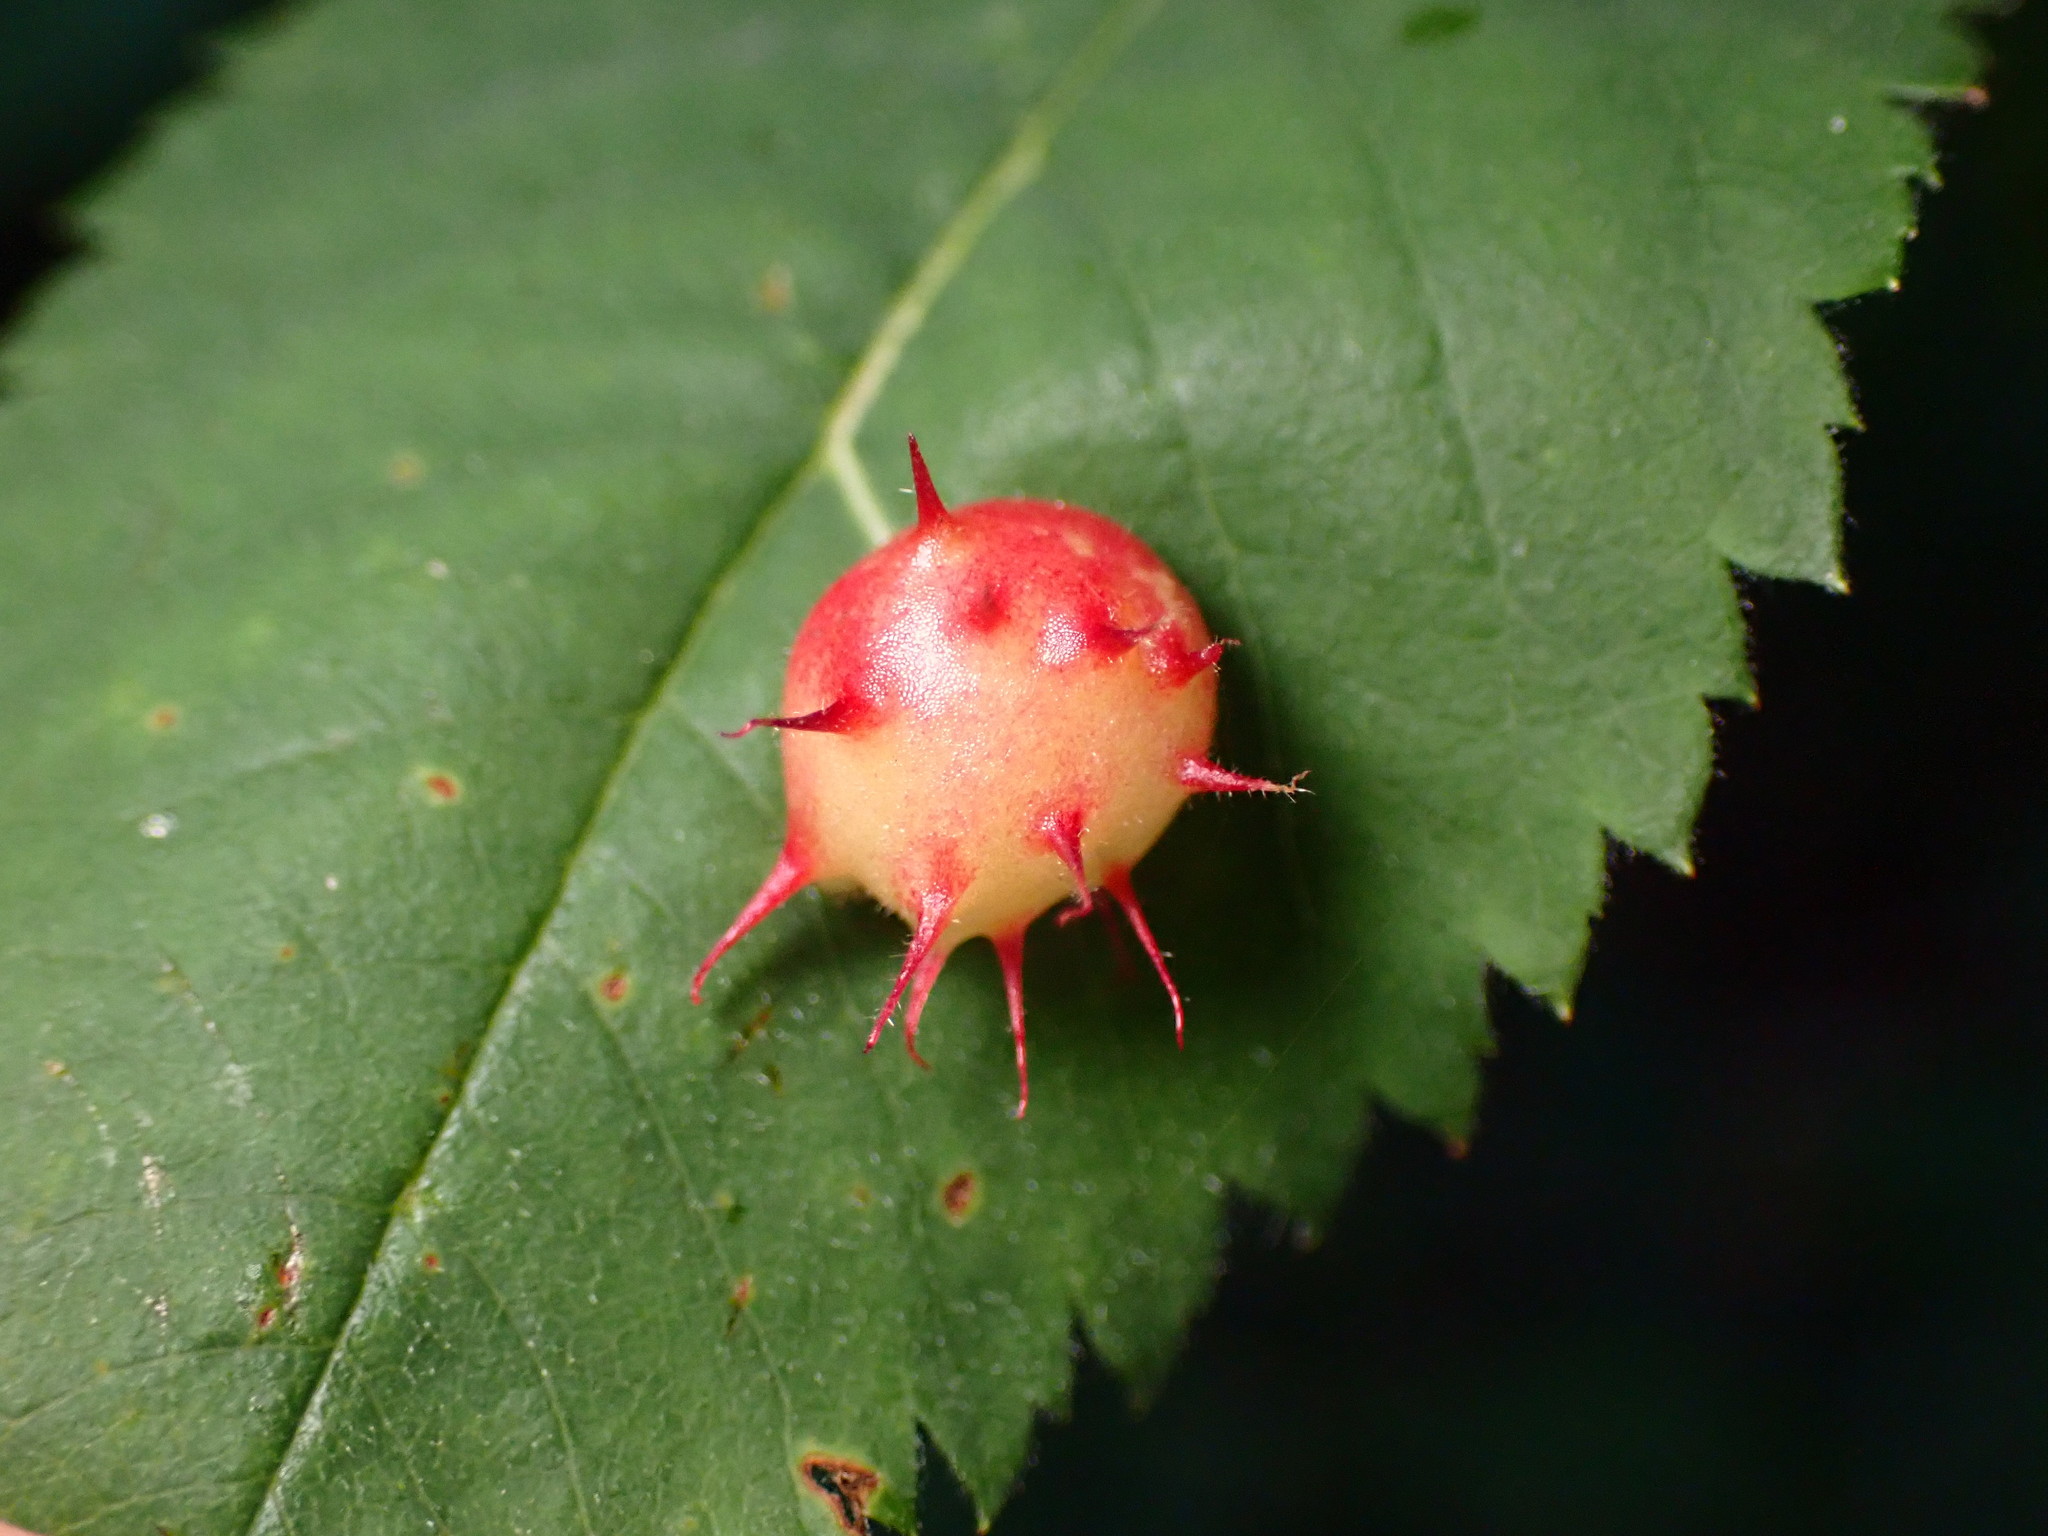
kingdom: Animalia
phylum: Arthropoda
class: Insecta
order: Hymenoptera
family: Cynipidae
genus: Diplolepis
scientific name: Diplolepis polita
